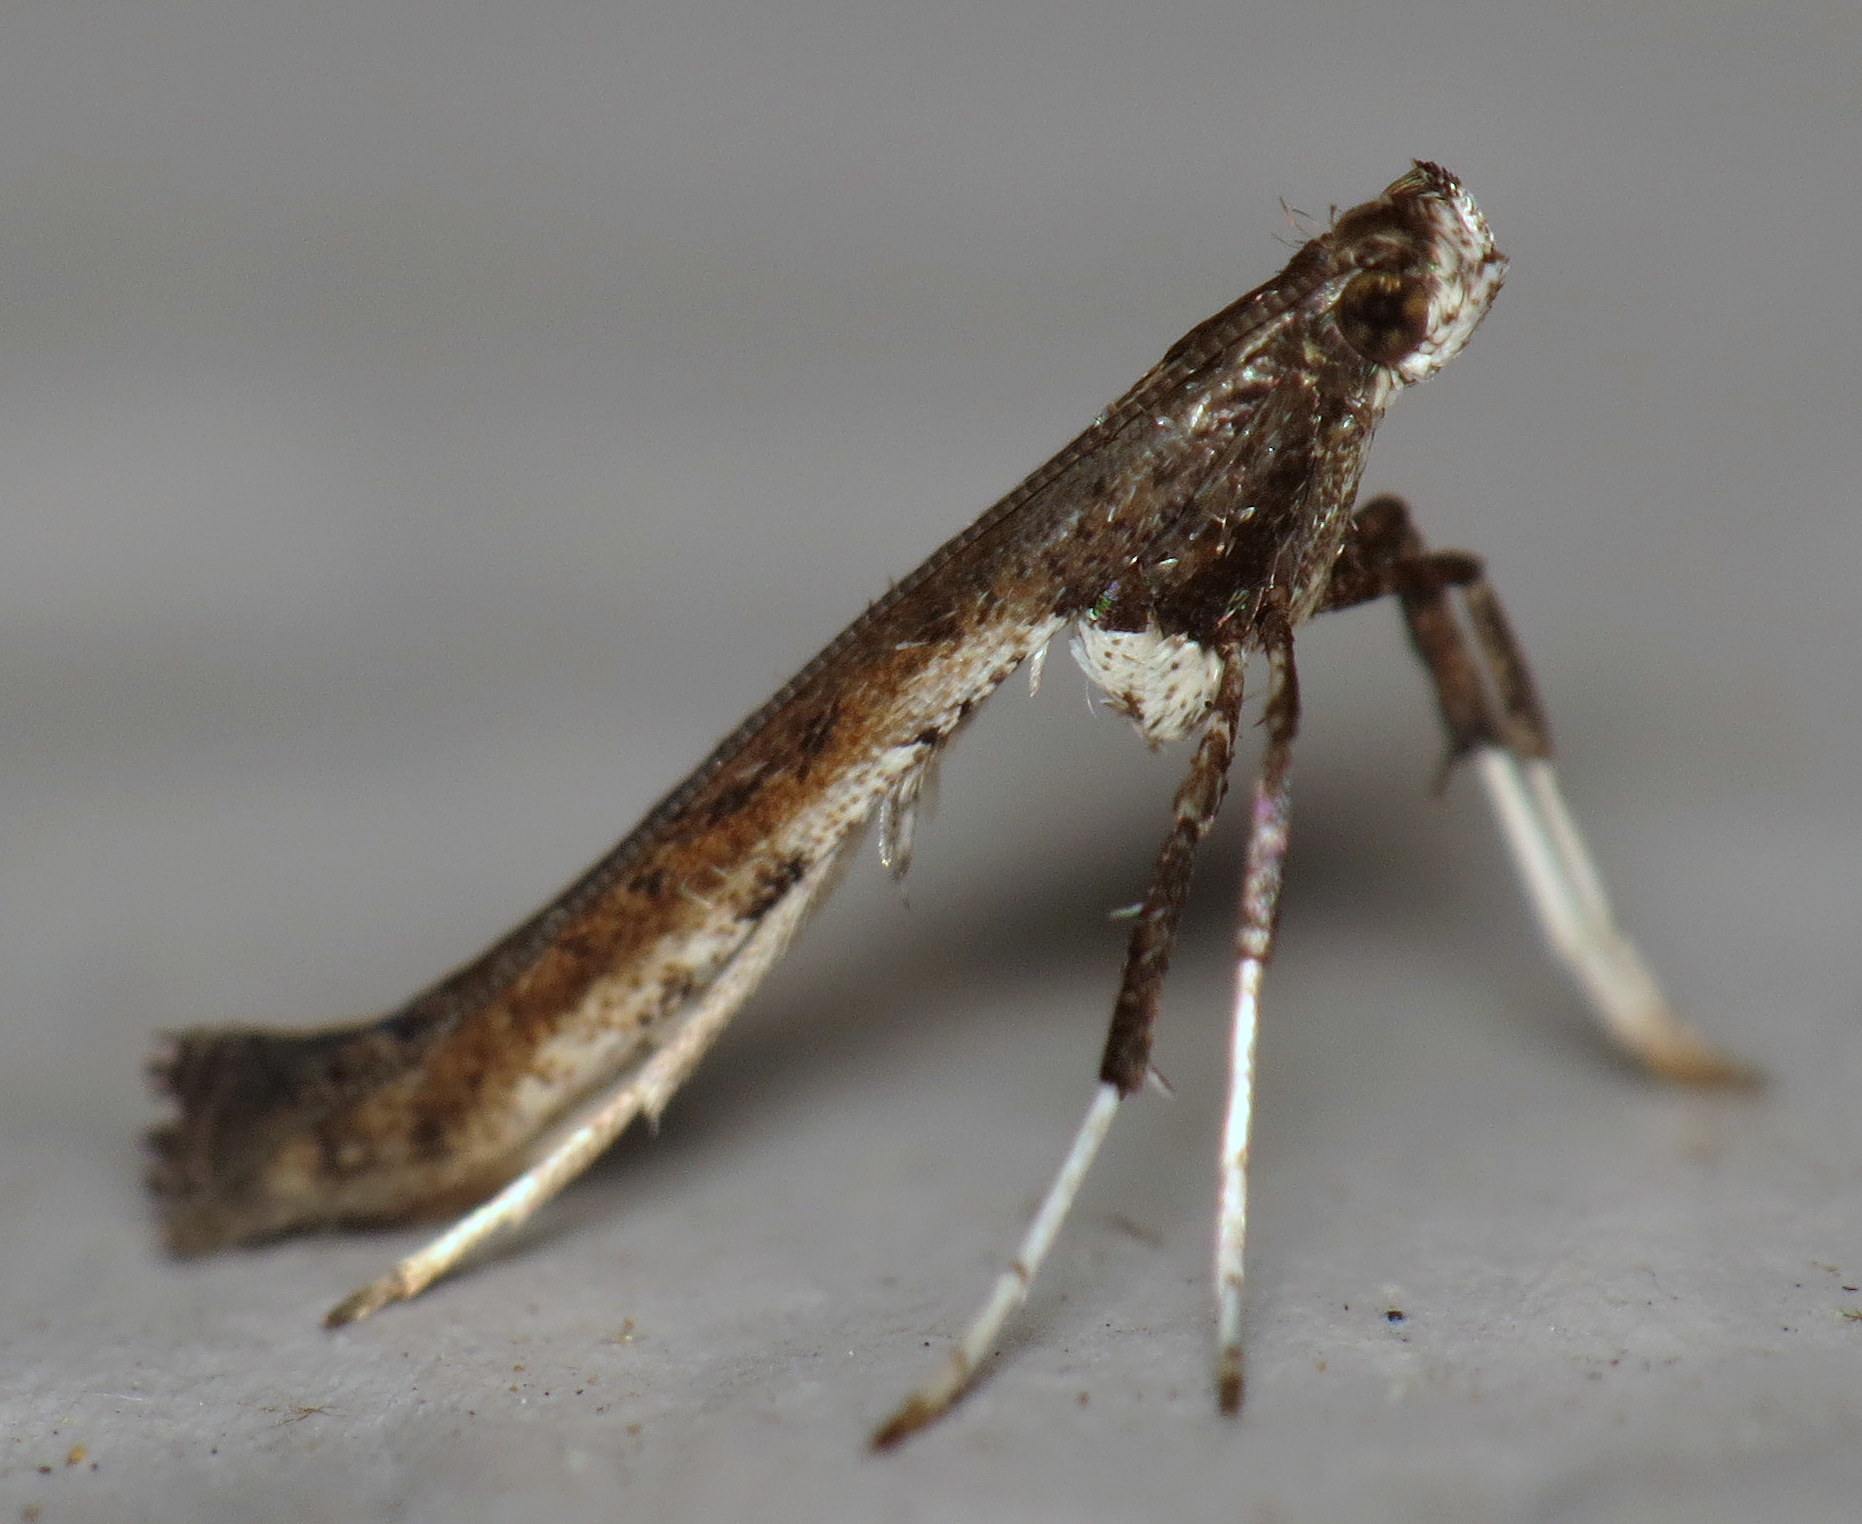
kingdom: Animalia
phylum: Arthropoda
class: Insecta
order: Lepidoptera
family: Gracillariidae
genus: Caloptilia
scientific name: Caloptilia rhoifoliella
